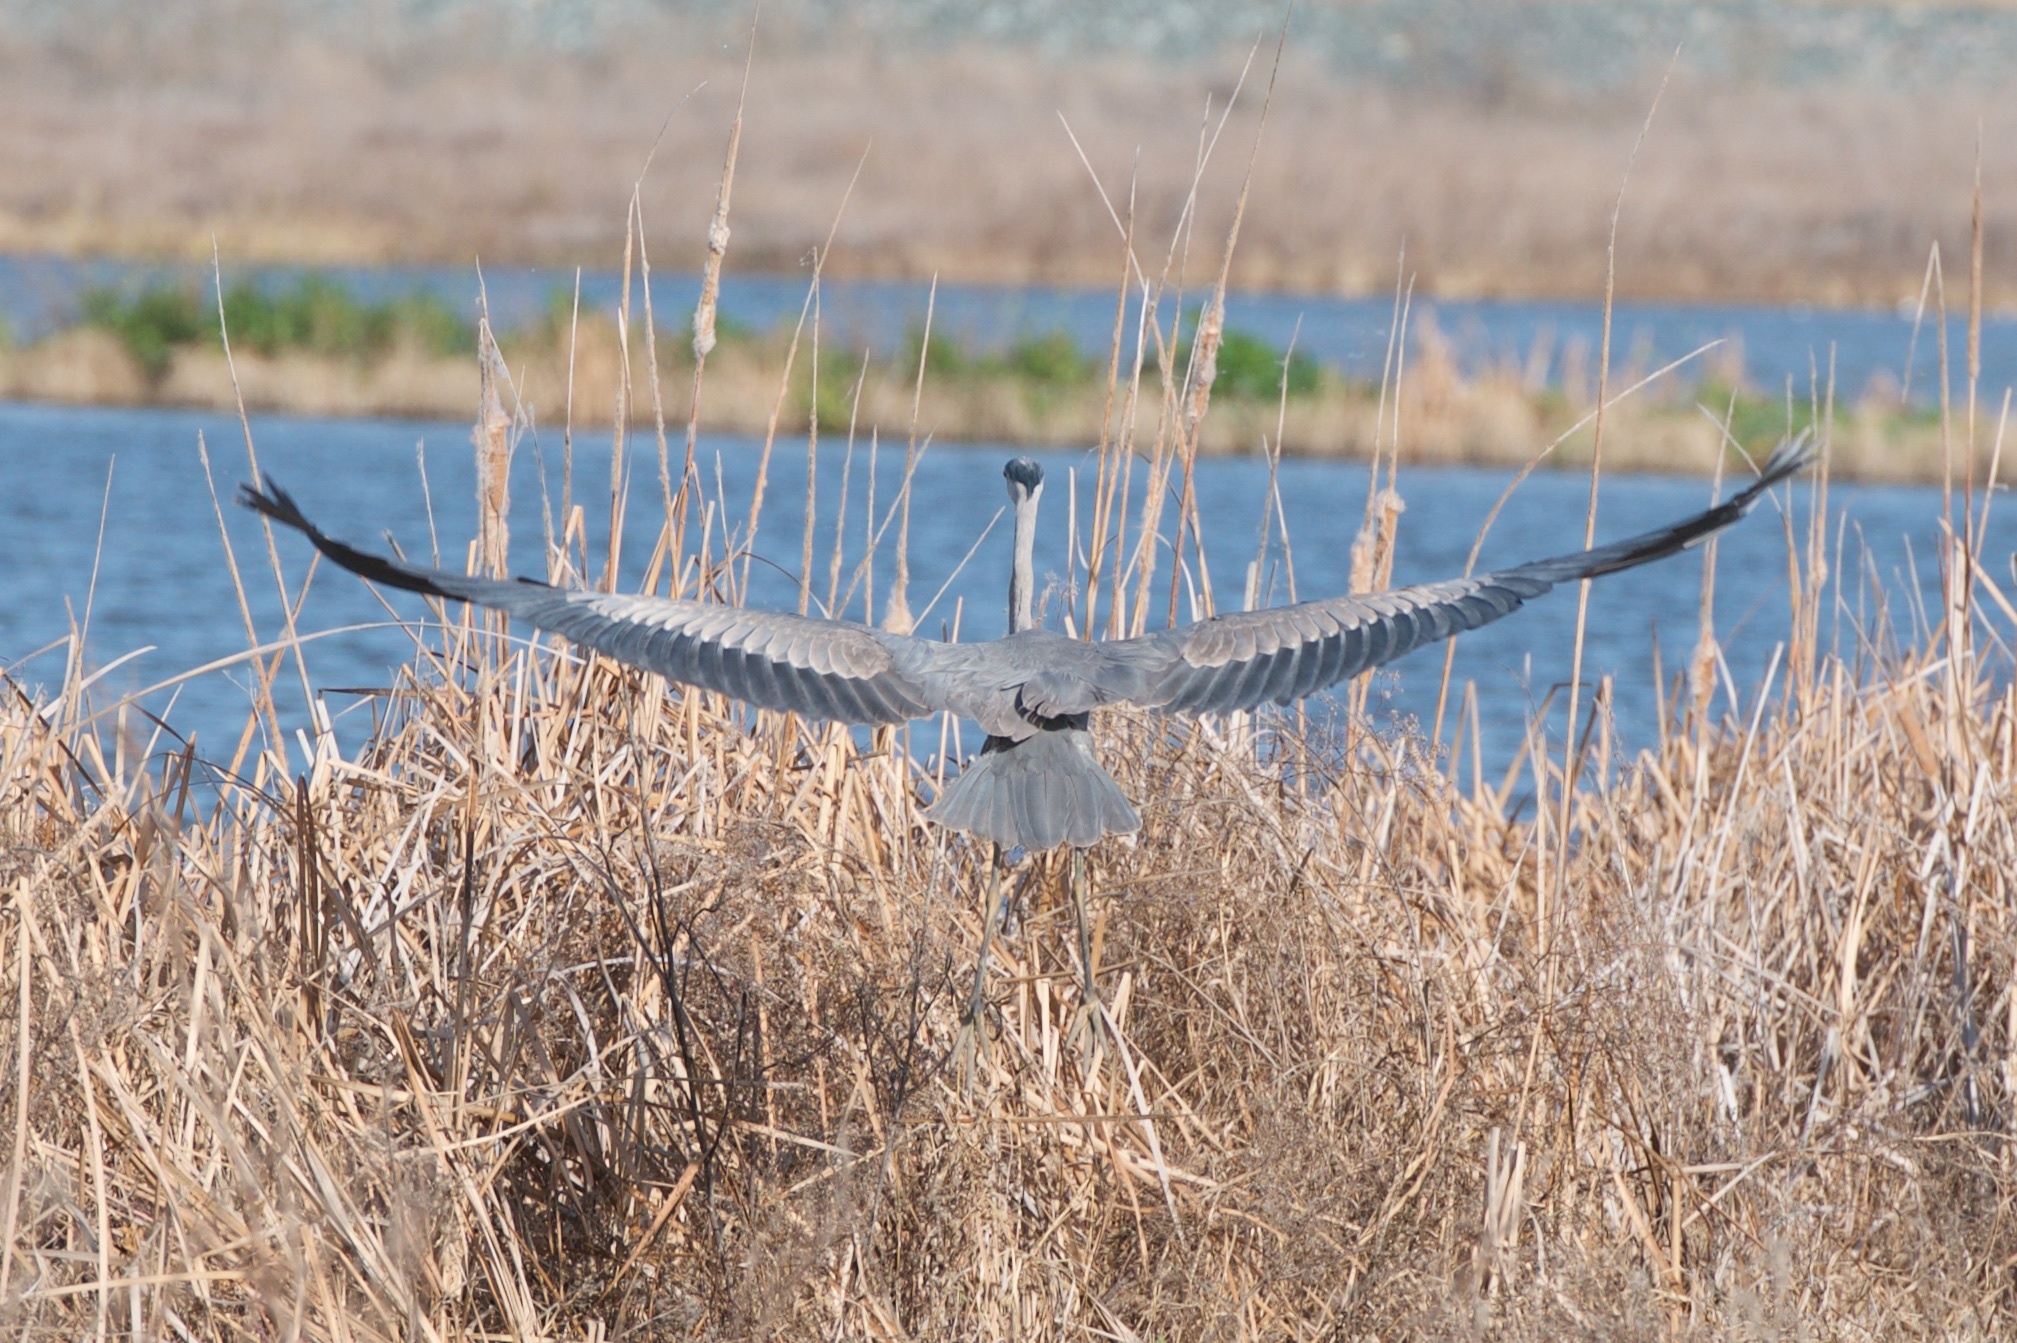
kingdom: Animalia
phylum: Chordata
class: Aves
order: Pelecaniformes
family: Ardeidae
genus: Ardea
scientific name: Ardea herodias
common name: Great blue heron
